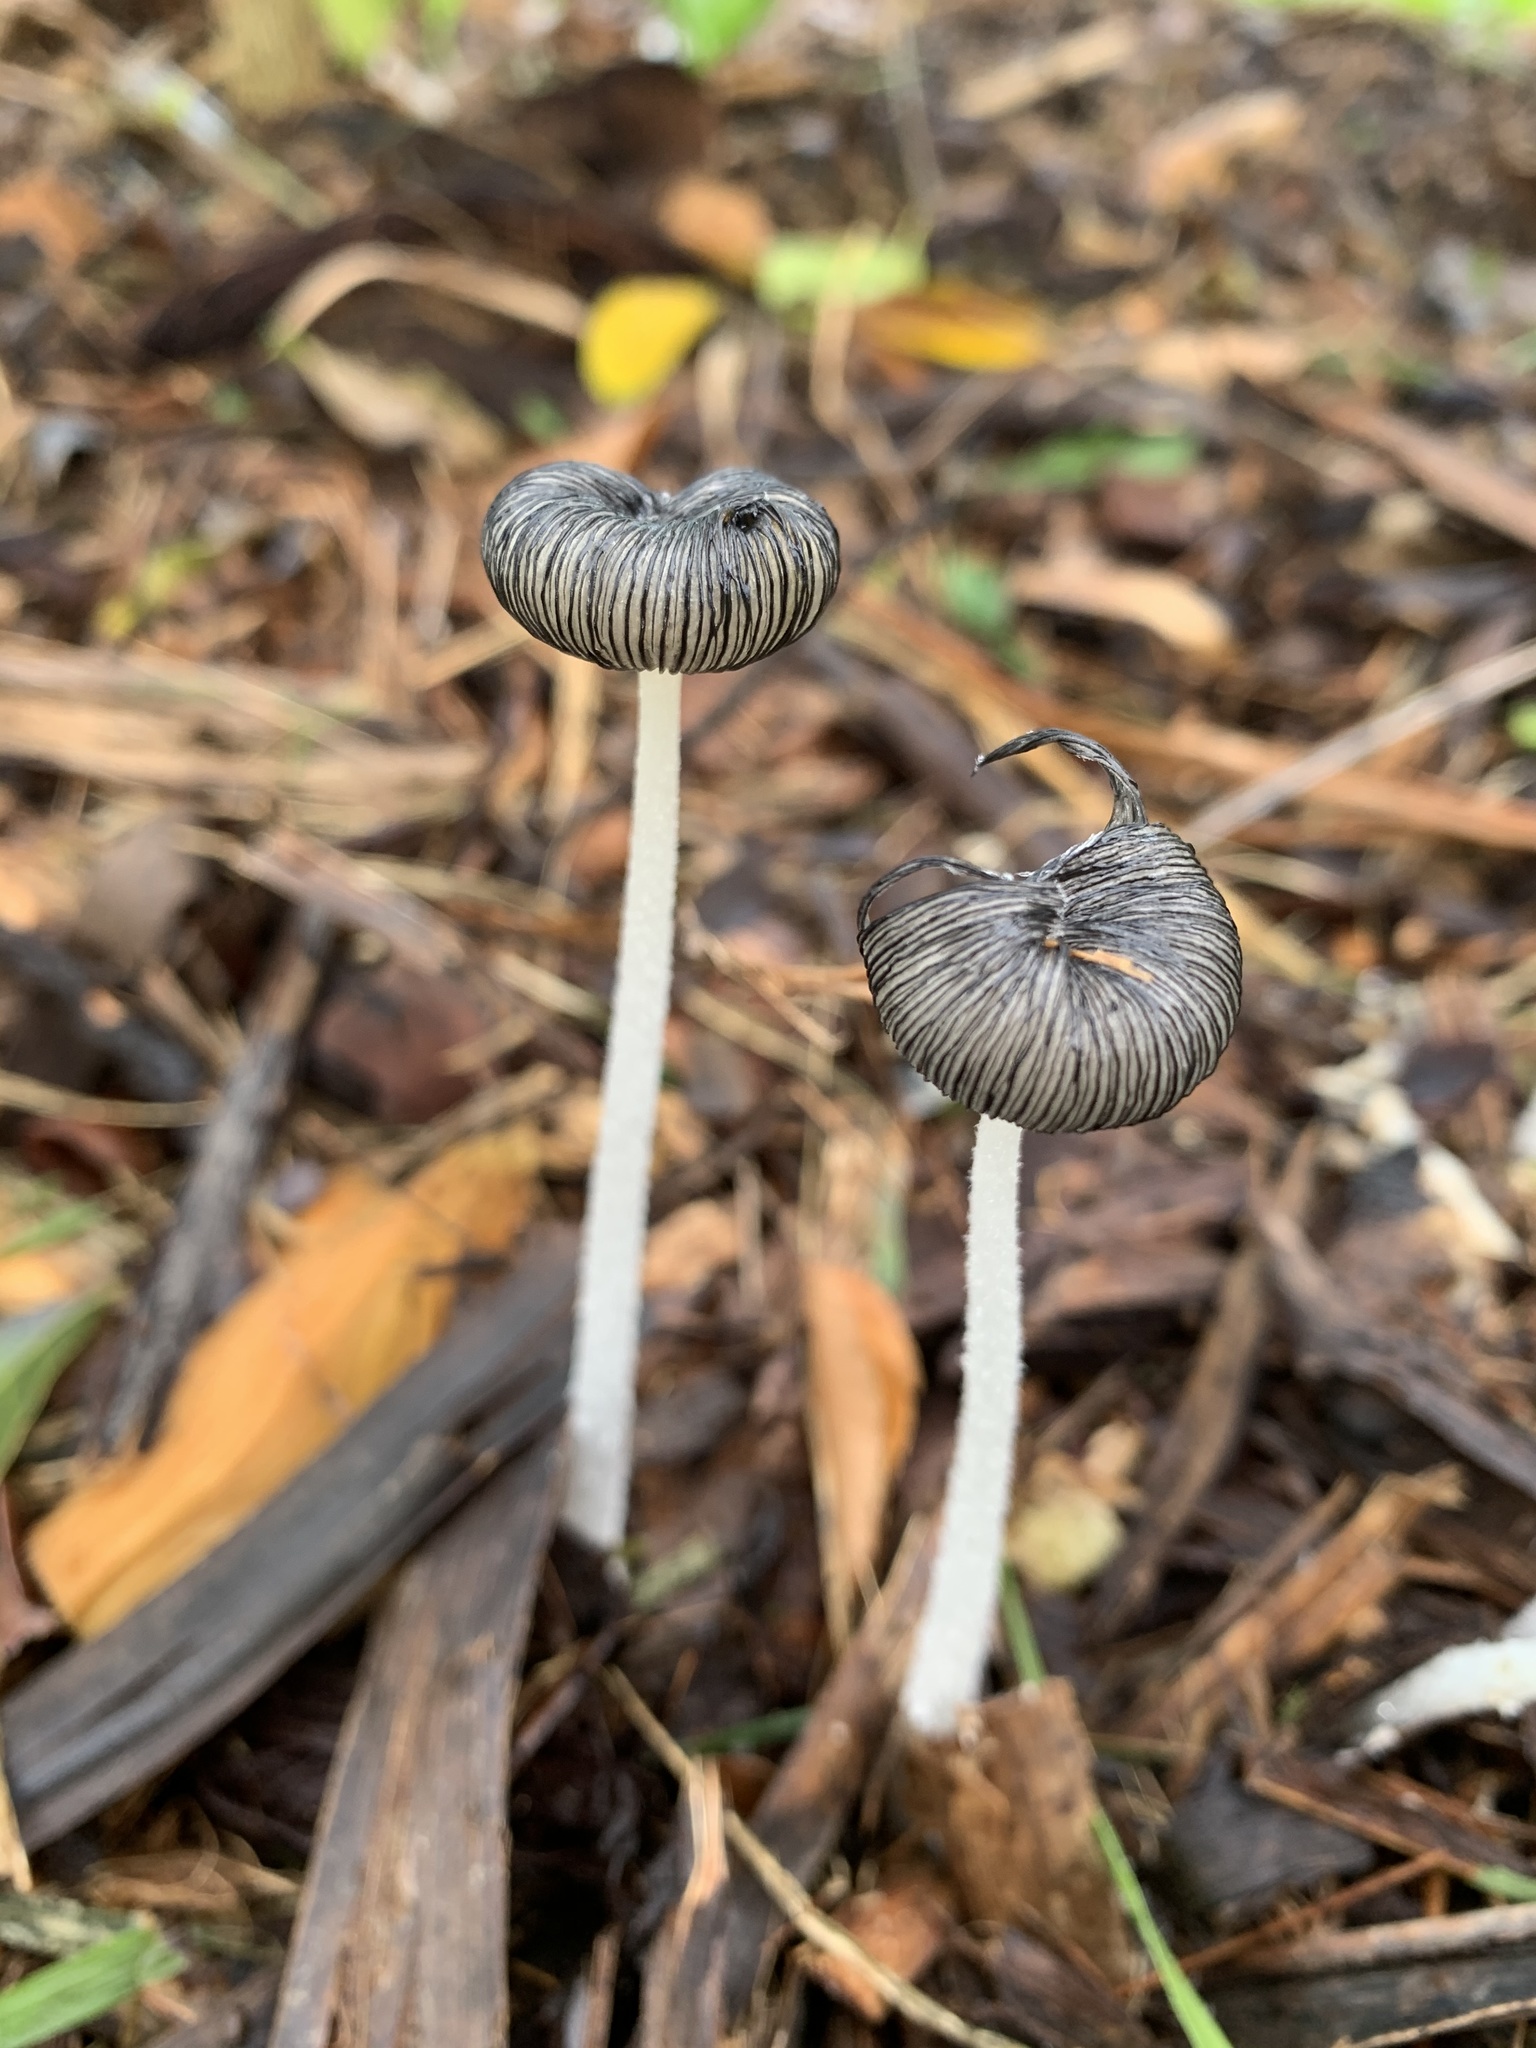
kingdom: Fungi
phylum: Basidiomycota
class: Agaricomycetes
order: Agaricales
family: Psathyrellaceae
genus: Parasola
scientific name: Parasola plicatilis
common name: Pleated inkcap
